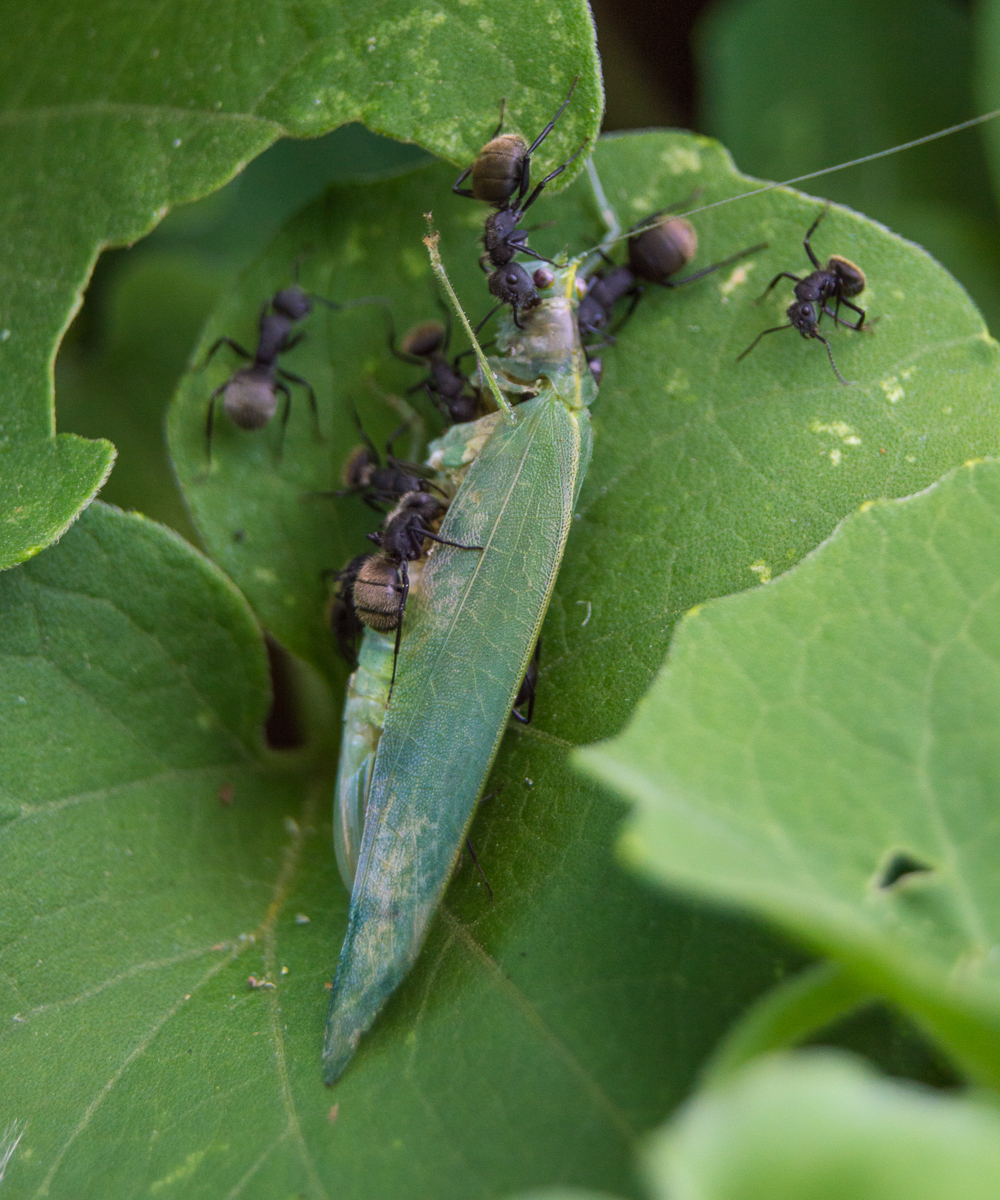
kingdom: Animalia
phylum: Arthropoda
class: Insecta
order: Hymenoptera
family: Formicidae
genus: Camponotus
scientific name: Camponotus mus
